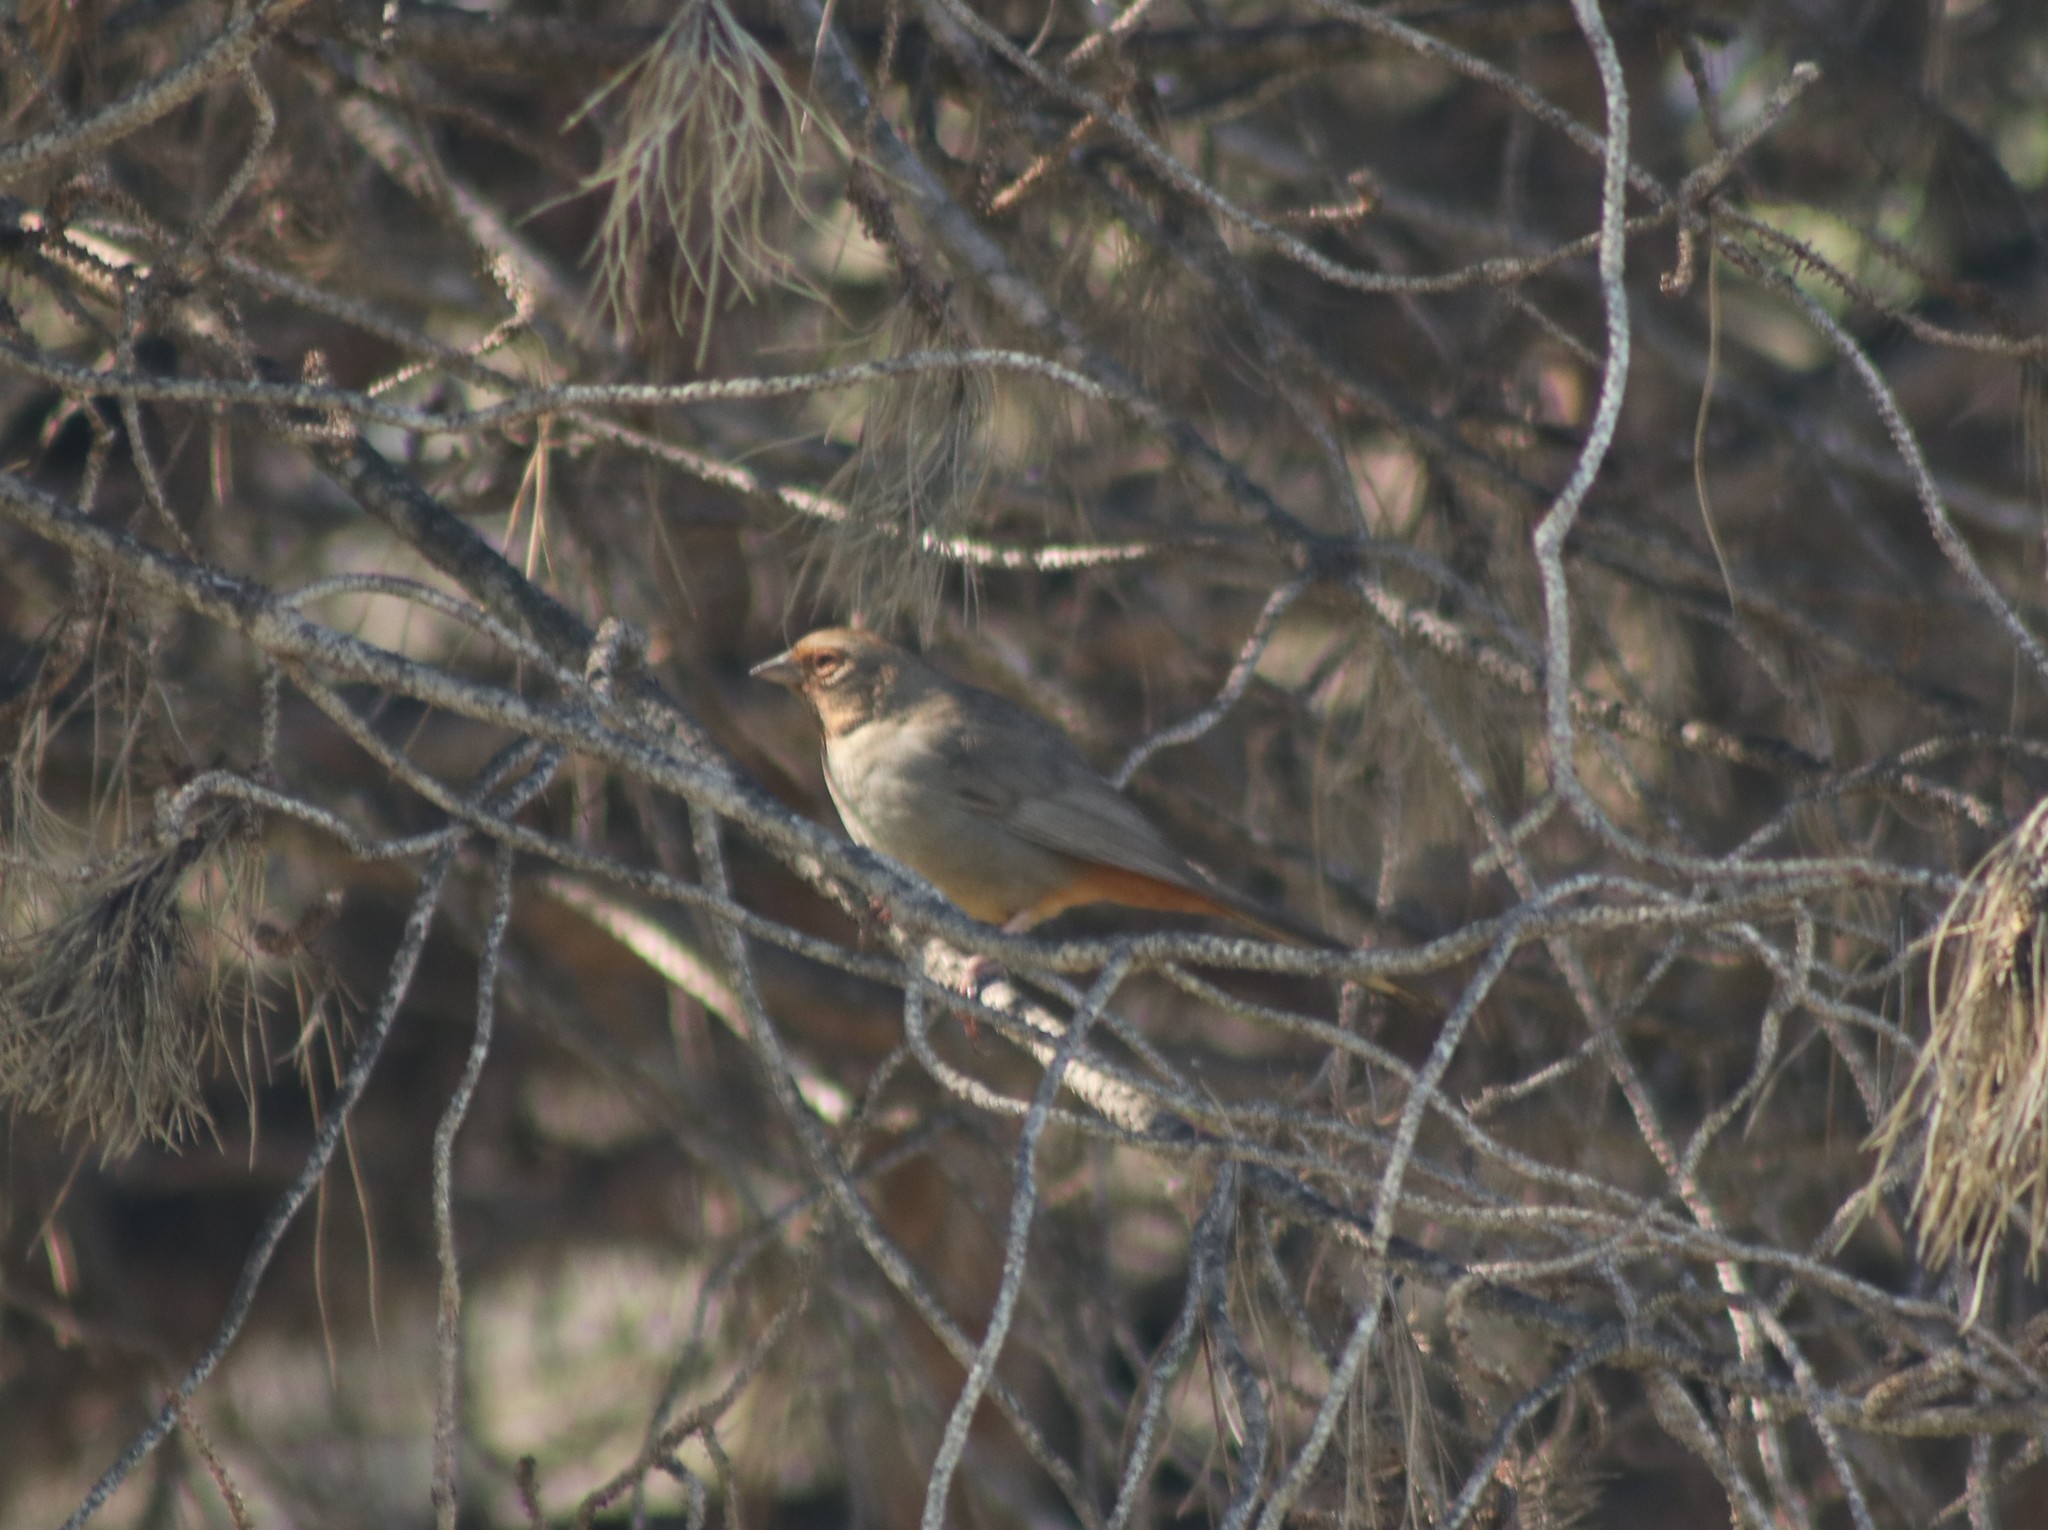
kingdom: Animalia
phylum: Chordata
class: Aves
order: Passeriformes
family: Passerellidae
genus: Melozone
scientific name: Melozone crissalis
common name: California towhee
